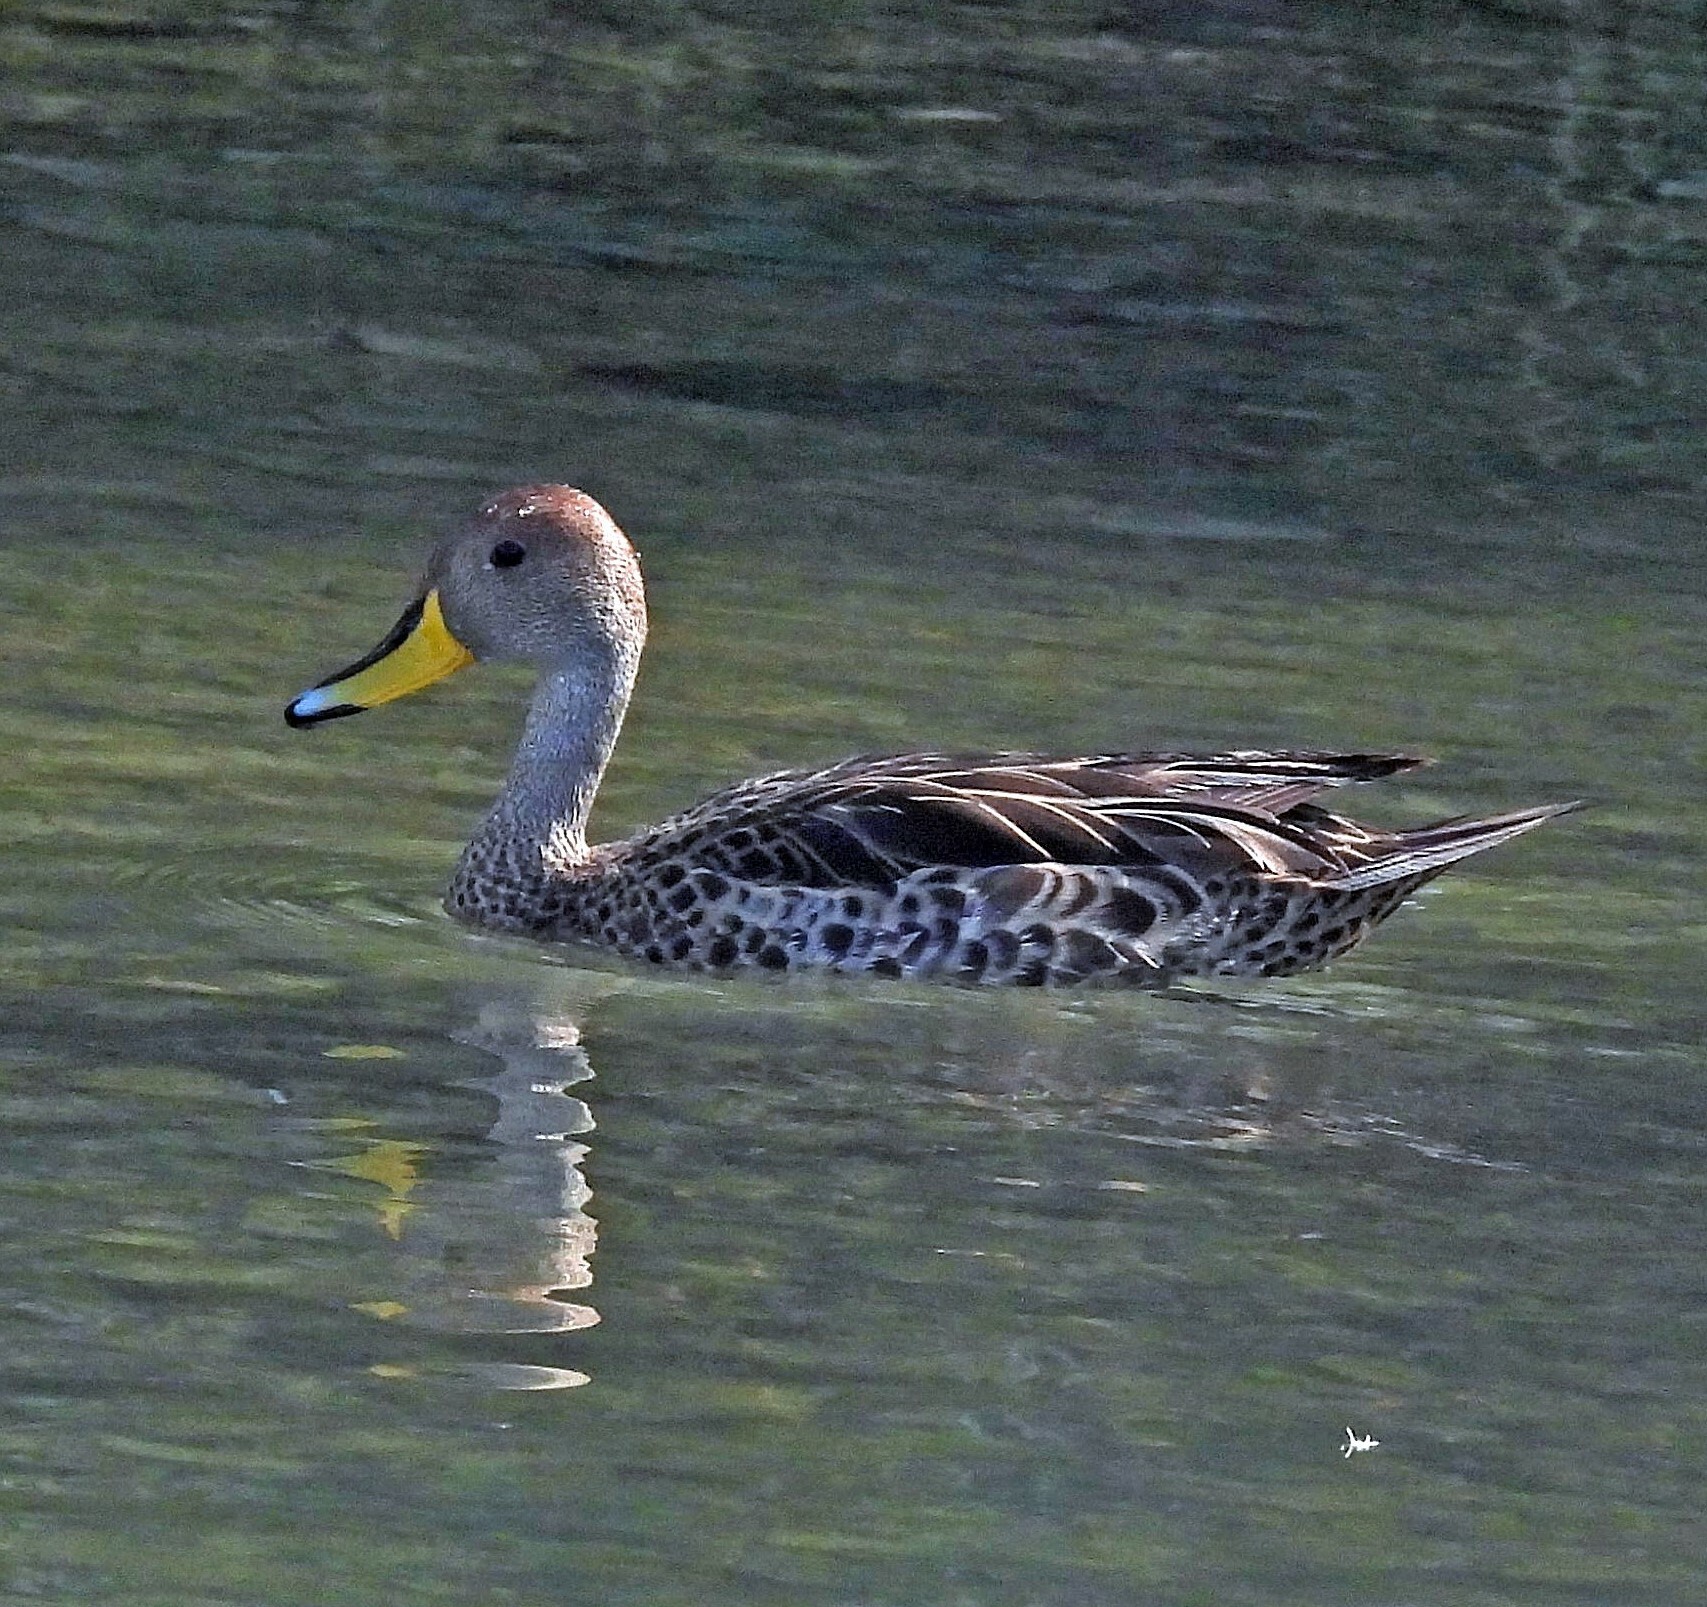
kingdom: Animalia
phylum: Chordata
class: Aves
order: Anseriformes
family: Anatidae
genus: Anas
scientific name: Anas georgica
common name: Yellow-billed pintail
